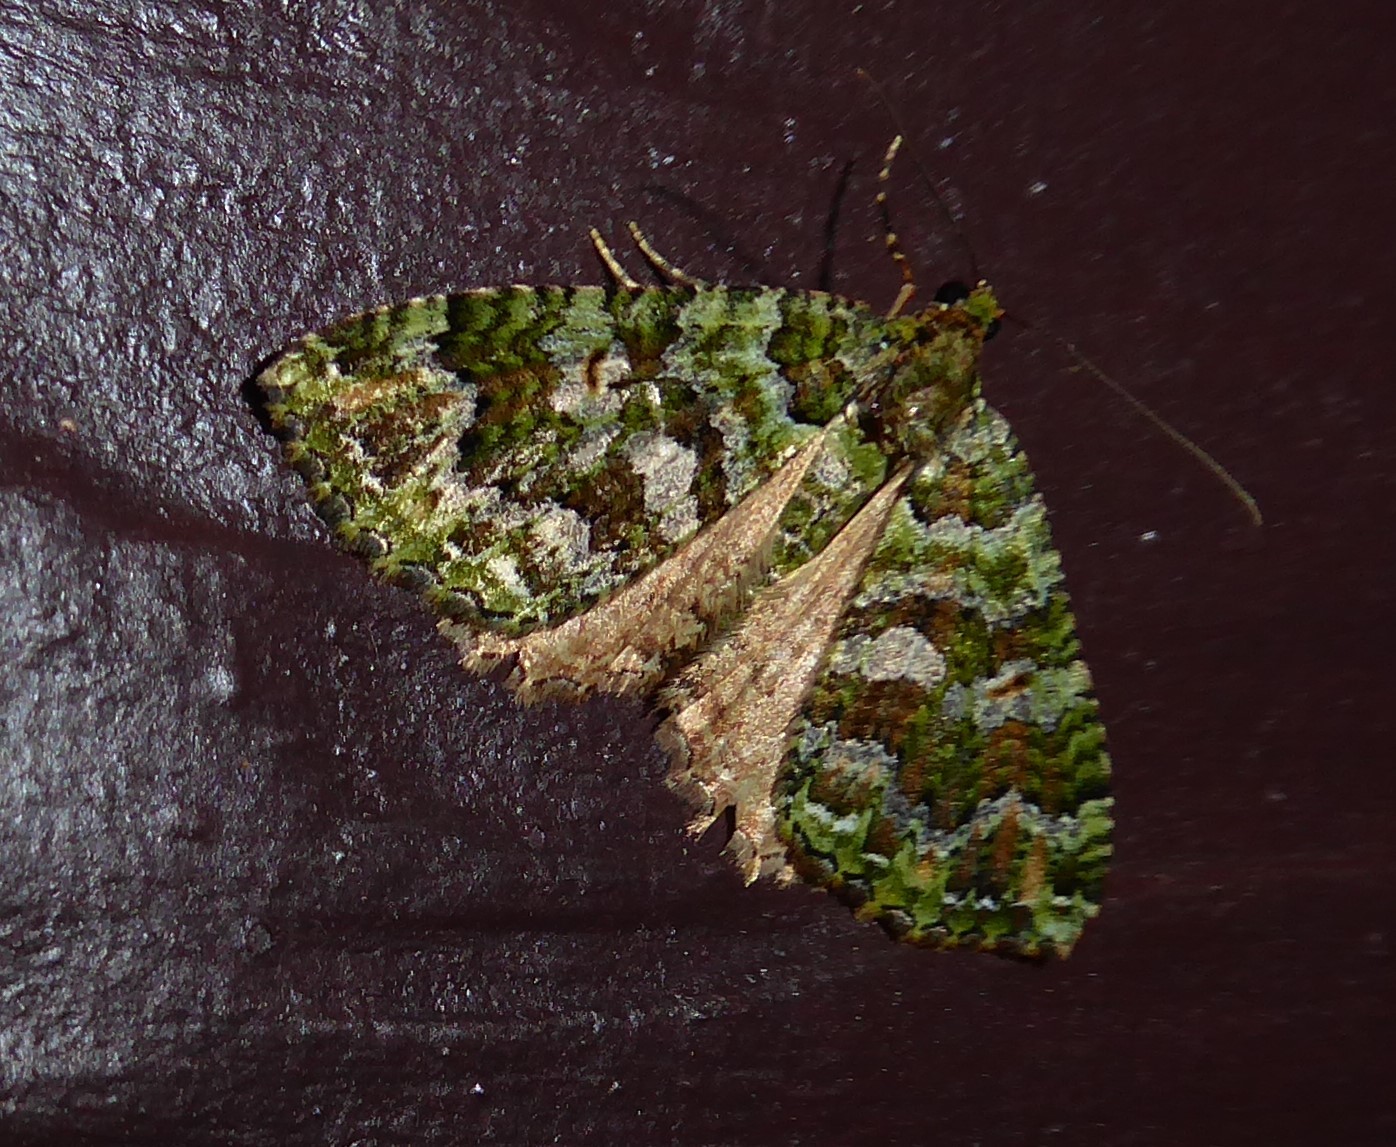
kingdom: Animalia
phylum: Arthropoda
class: Insecta
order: Lepidoptera
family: Geometridae
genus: Austrocidaria
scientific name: Austrocidaria similata
